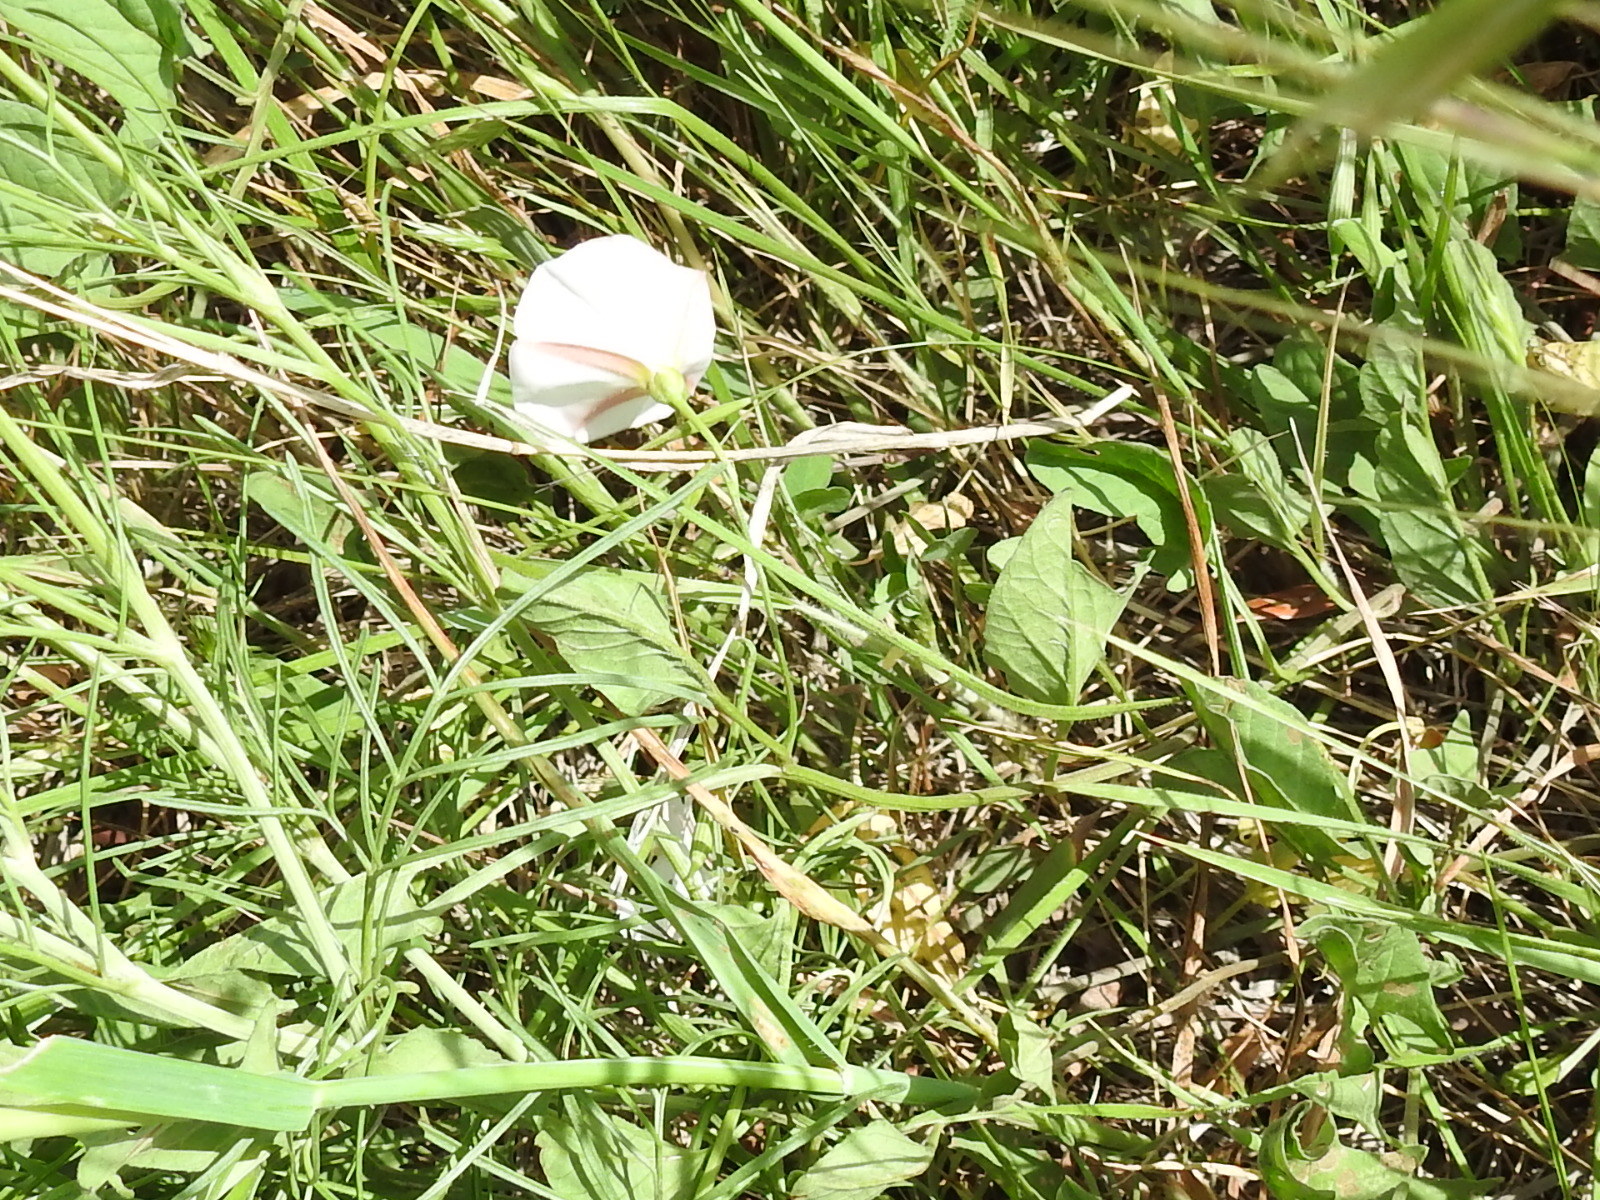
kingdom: Plantae
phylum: Tracheophyta
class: Magnoliopsida
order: Solanales
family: Convolvulaceae
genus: Convolvulus
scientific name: Convolvulus arvensis
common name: Field bindweed
